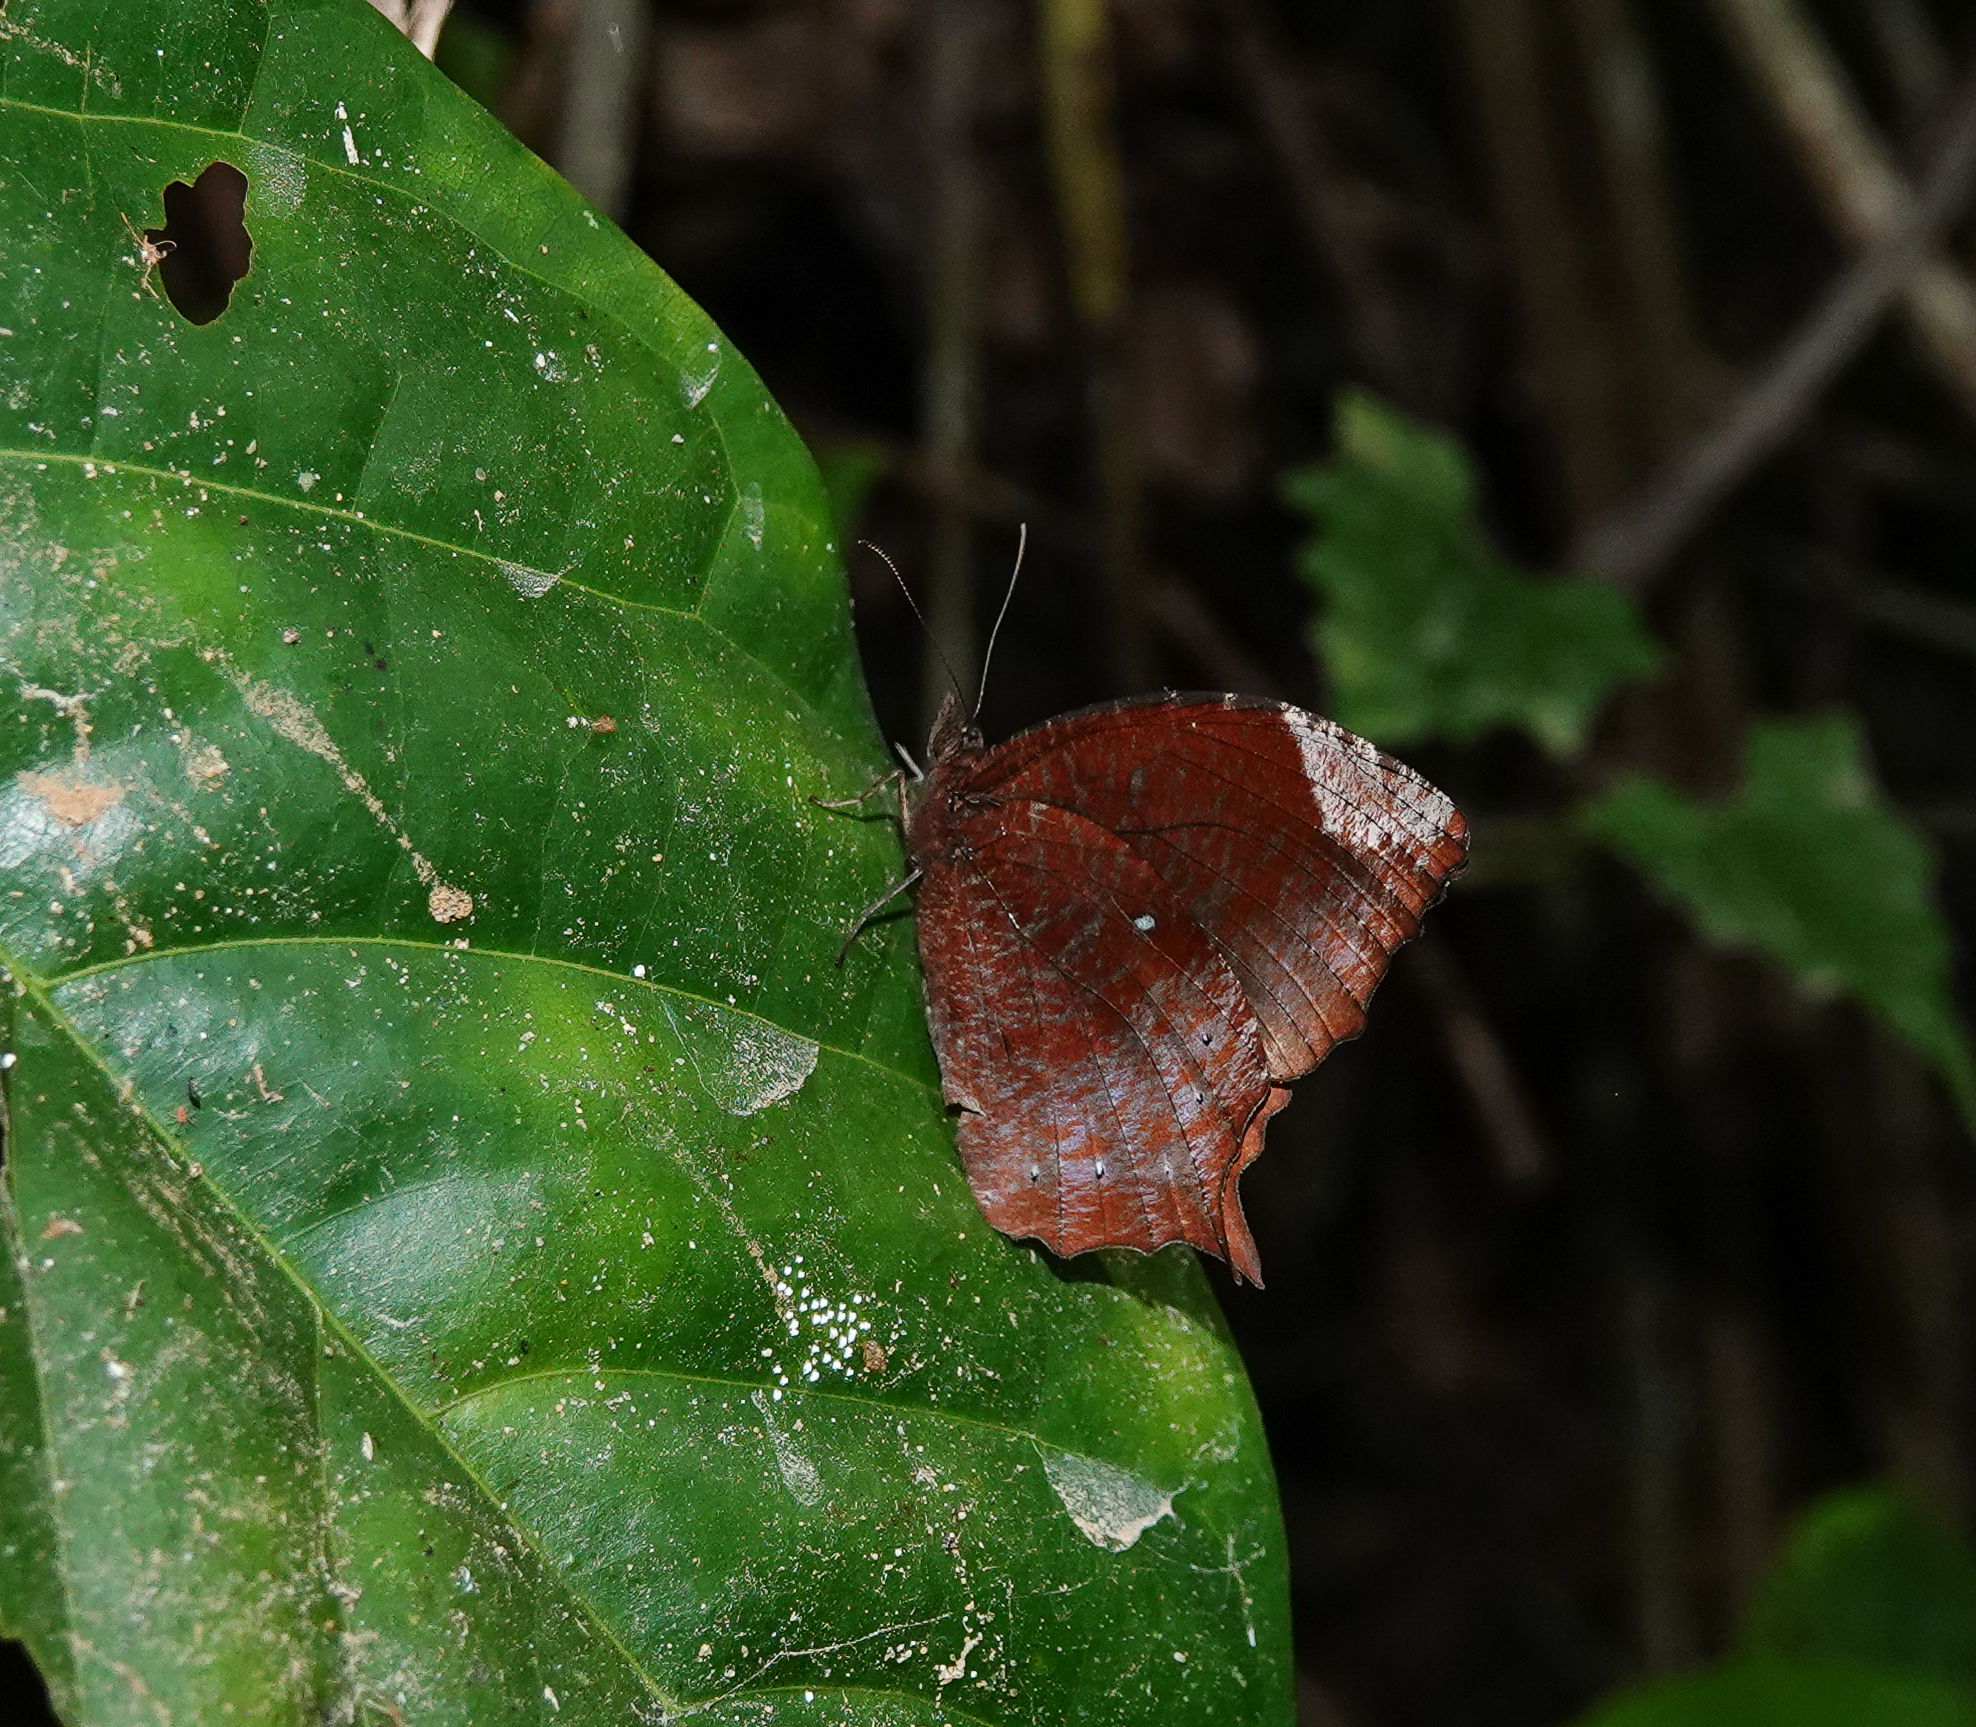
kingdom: Animalia
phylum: Arthropoda
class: Insecta
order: Lepidoptera
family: Nymphalidae
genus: Elymnias
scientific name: Elymnias congruens
